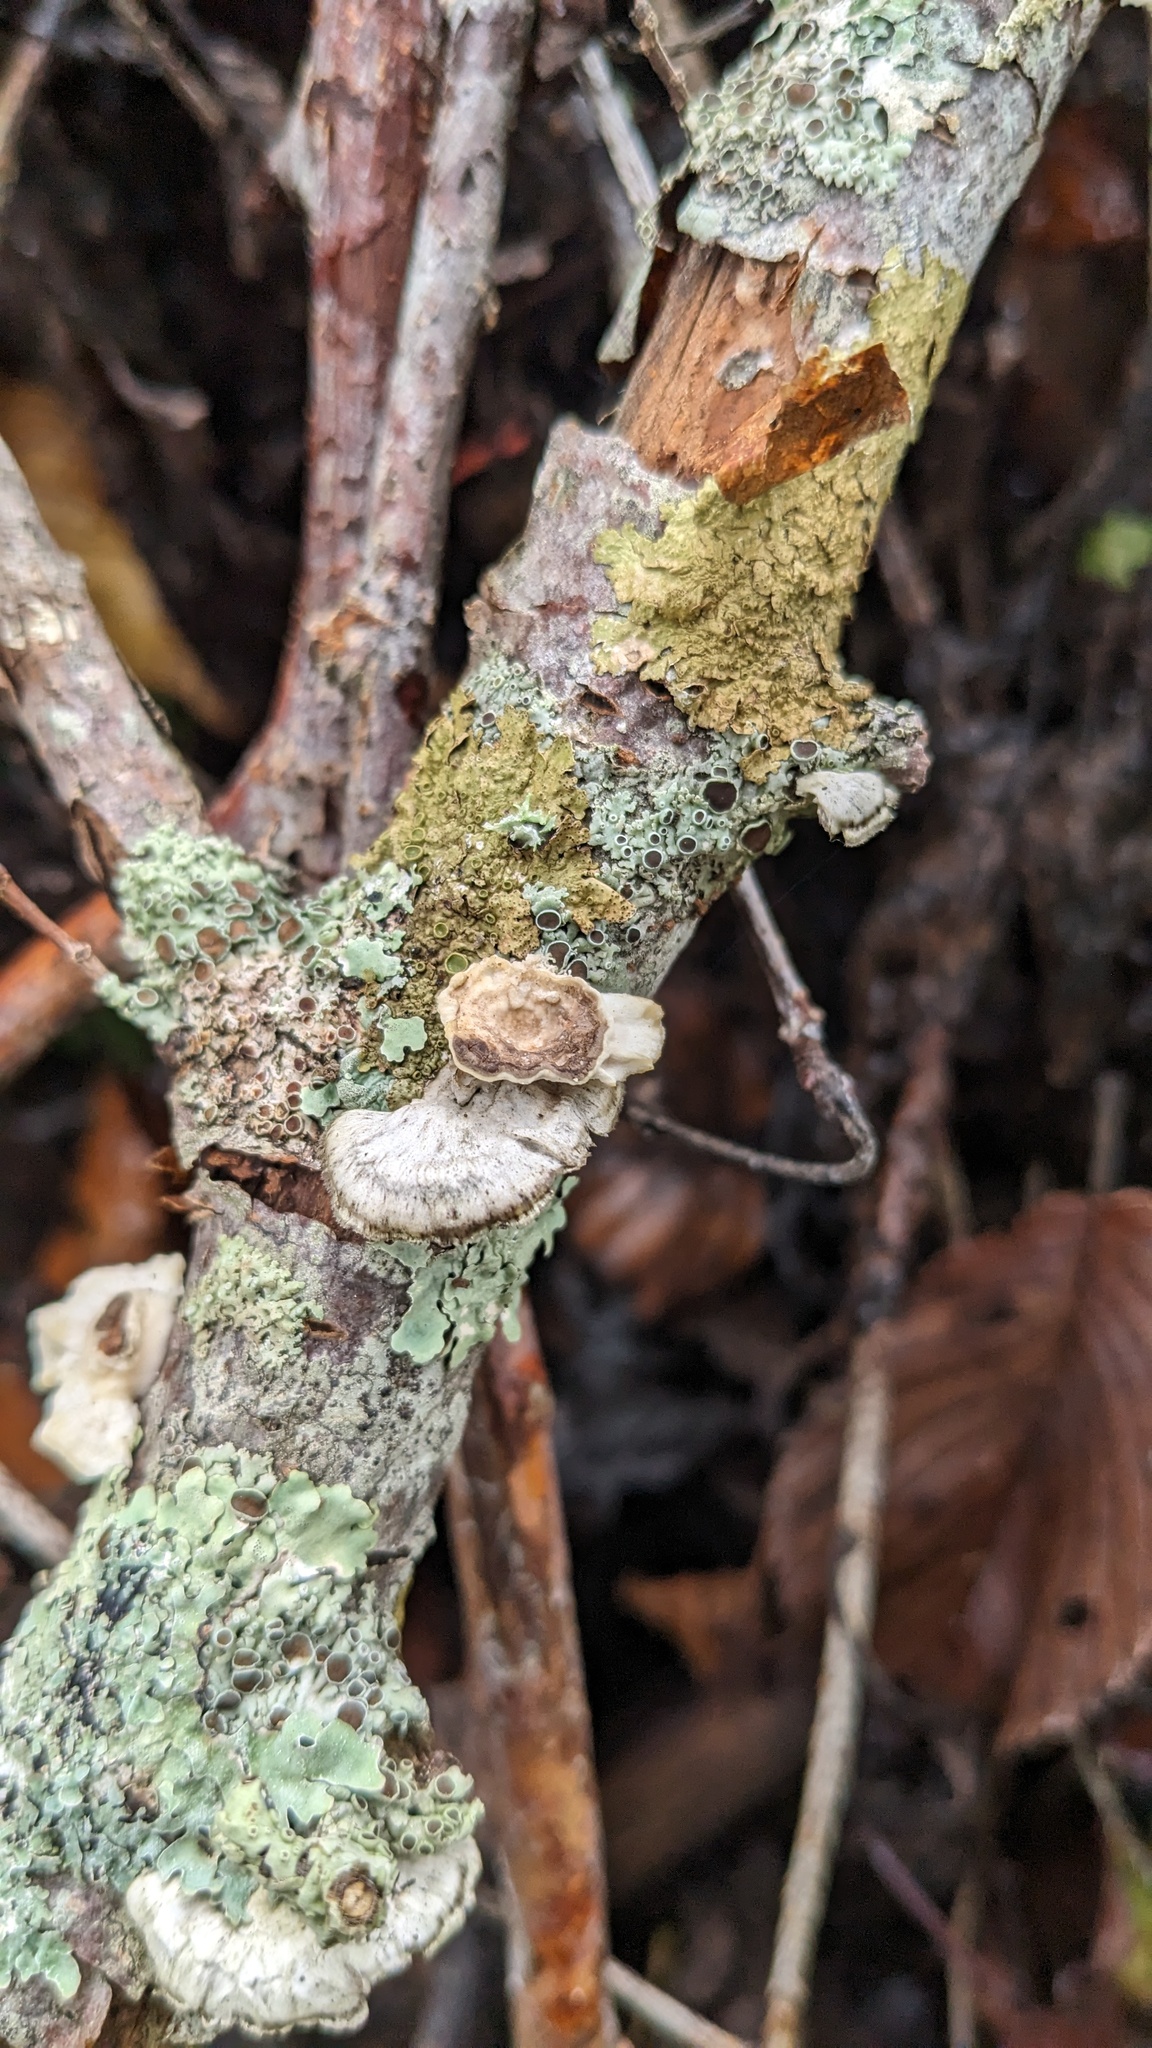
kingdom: Fungi
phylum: Basidiomycota
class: Agaricomycetes
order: Polyporales
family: Polyporaceae
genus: Poronidulus
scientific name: Poronidulus conchifer
